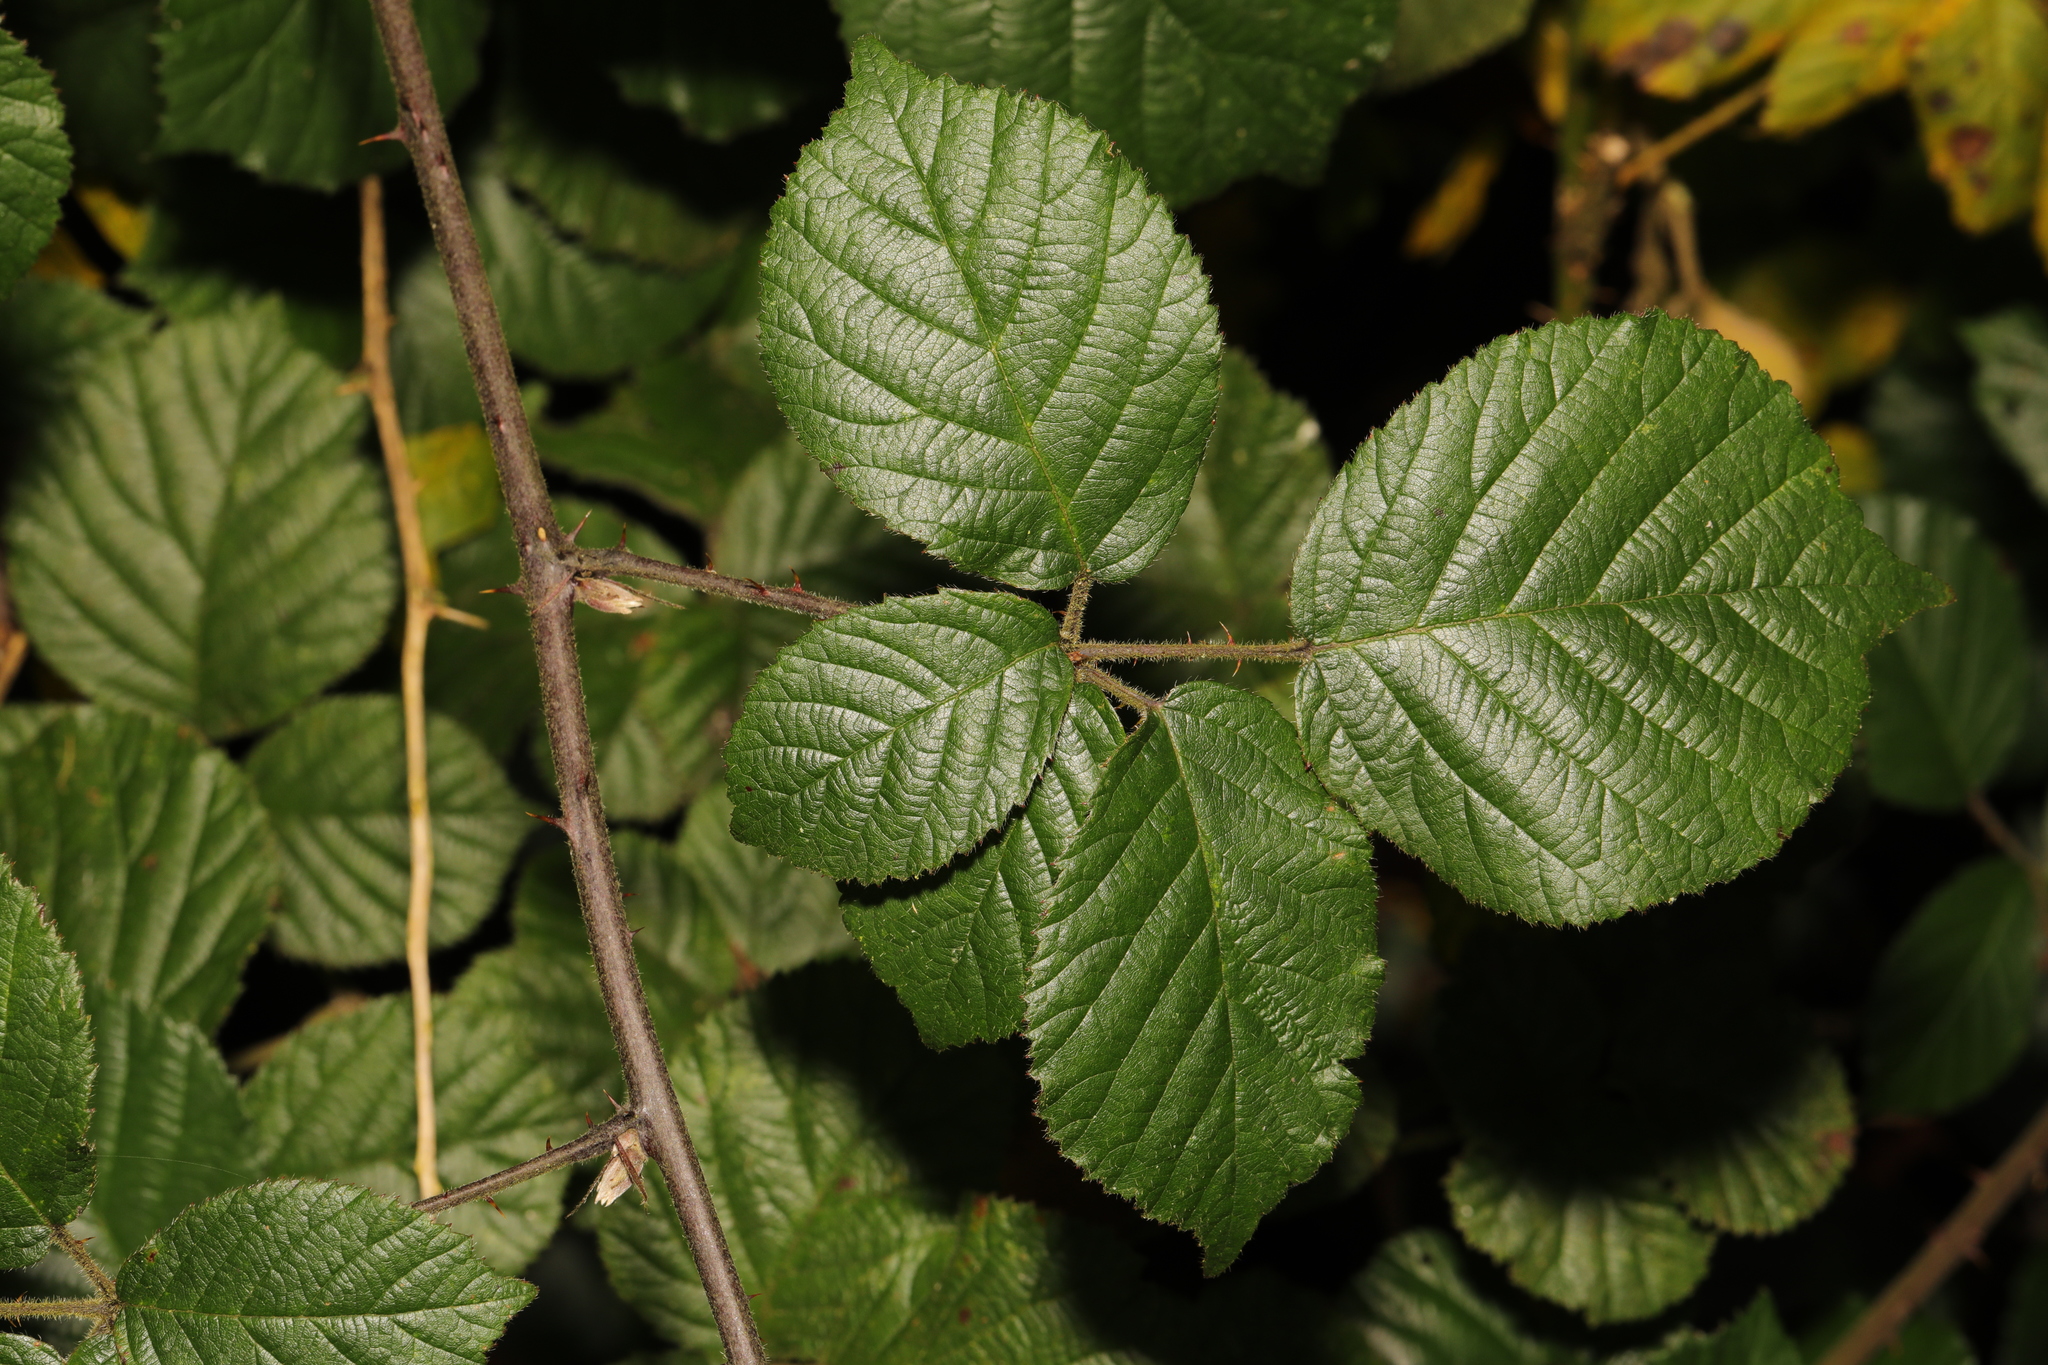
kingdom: Plantae
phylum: Tracheophyta
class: Magnoliopsida
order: Rosales
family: Rosaceae
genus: Rubus
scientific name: Rubus vestitus
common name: European blackberry
